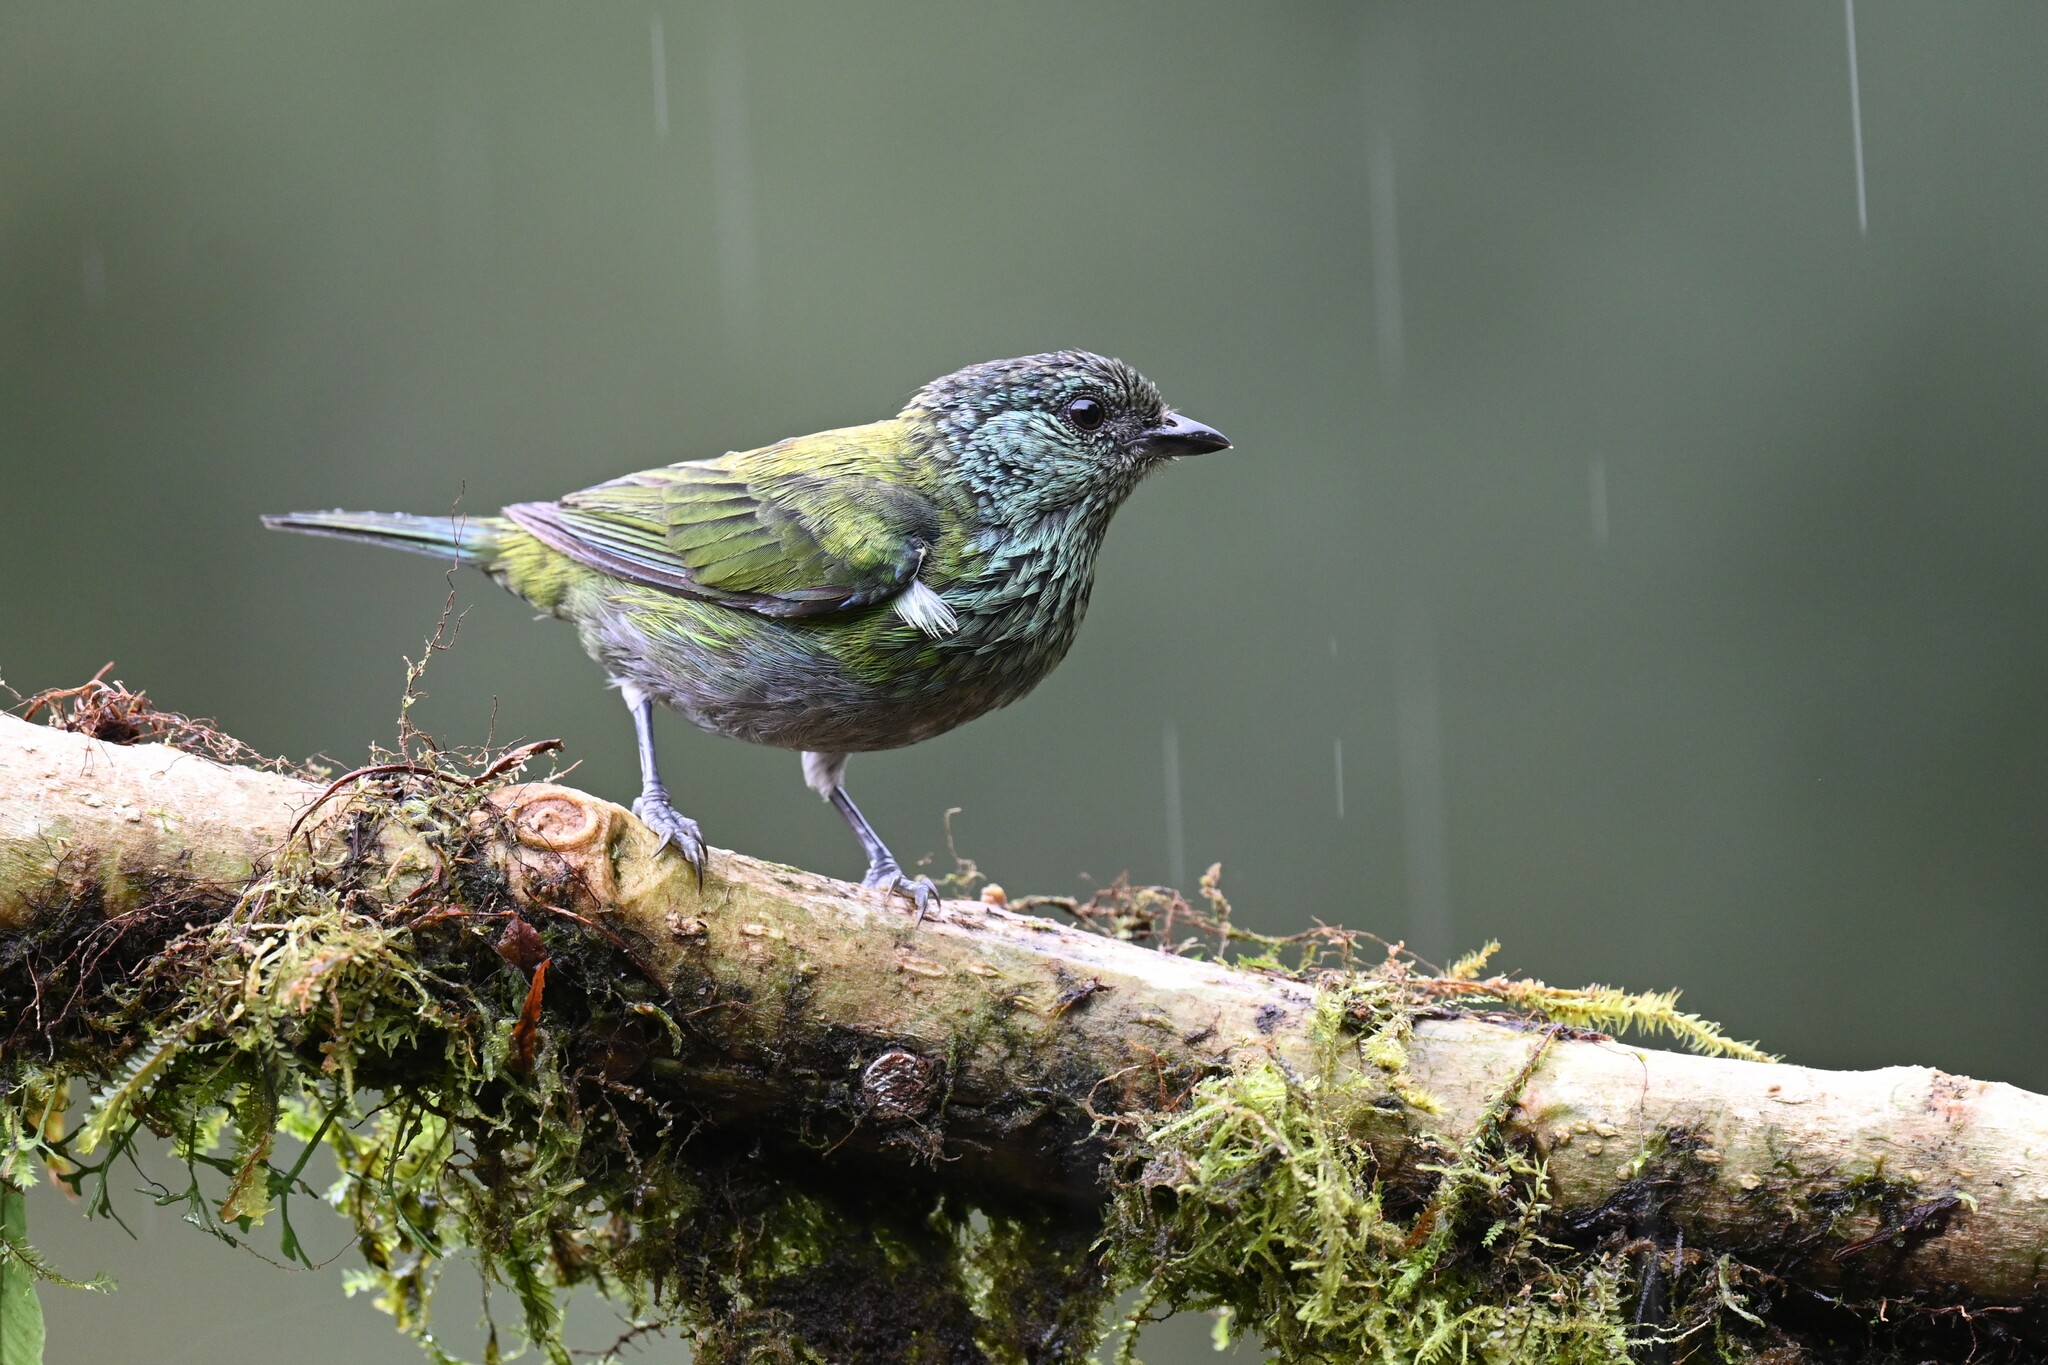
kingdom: Animalia
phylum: Chordata
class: Aves
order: Passeriformes
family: Thraupidae
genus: Stilpnia
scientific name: Stilpnia heinei
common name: Black-capped tanager
